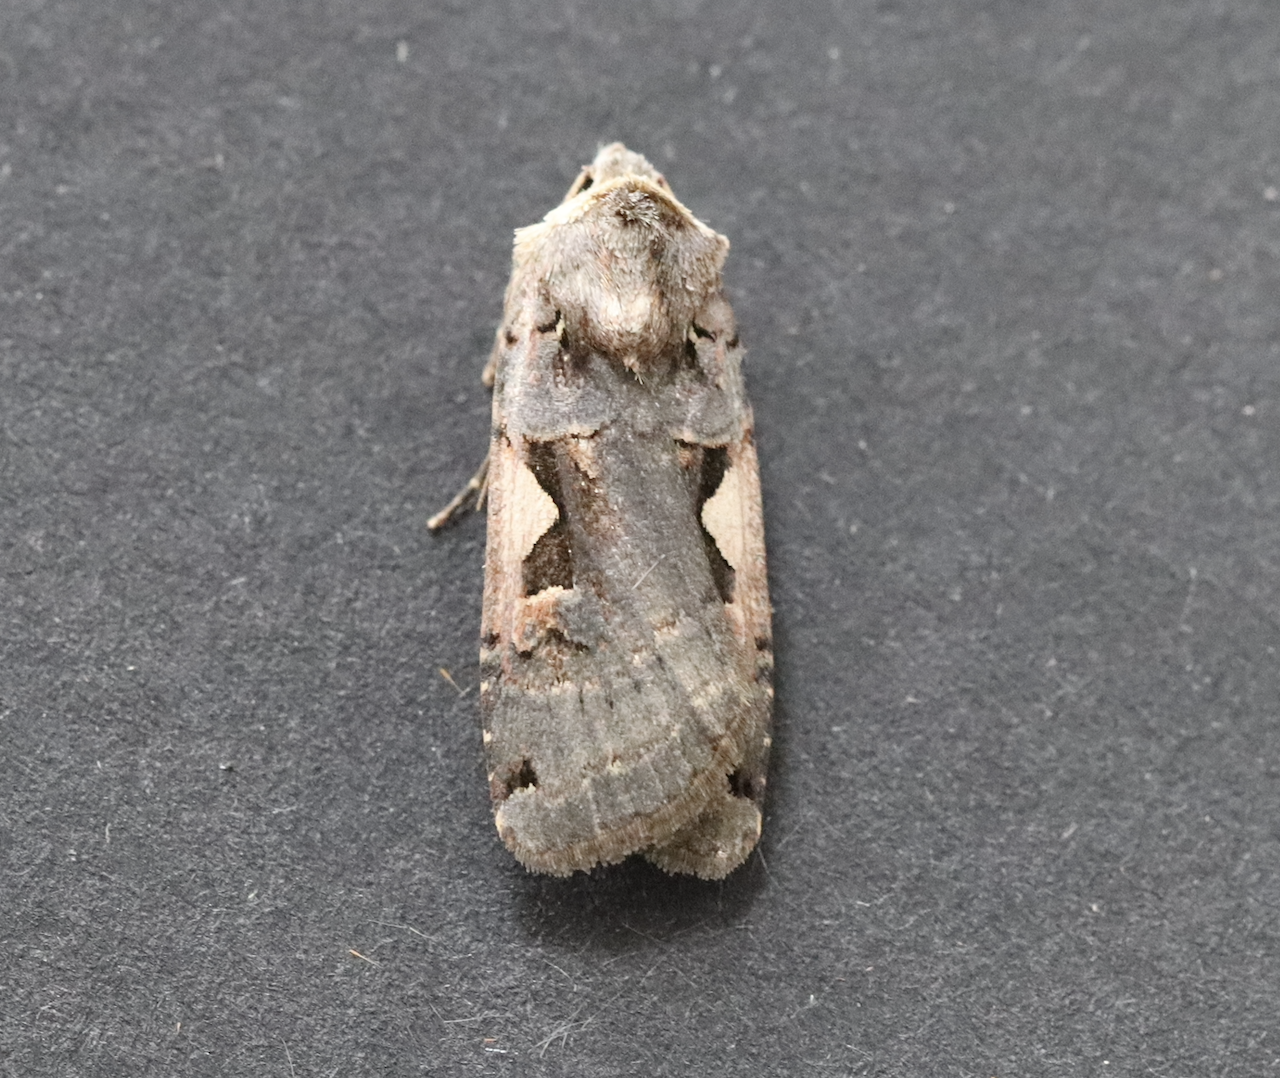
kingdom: Animalia
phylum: Arthropoda
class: Insecta
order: Lepidoptera
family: Noctuidae
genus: Xestia
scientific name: Xestia c-nigrum
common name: Setaceous hebrew character
